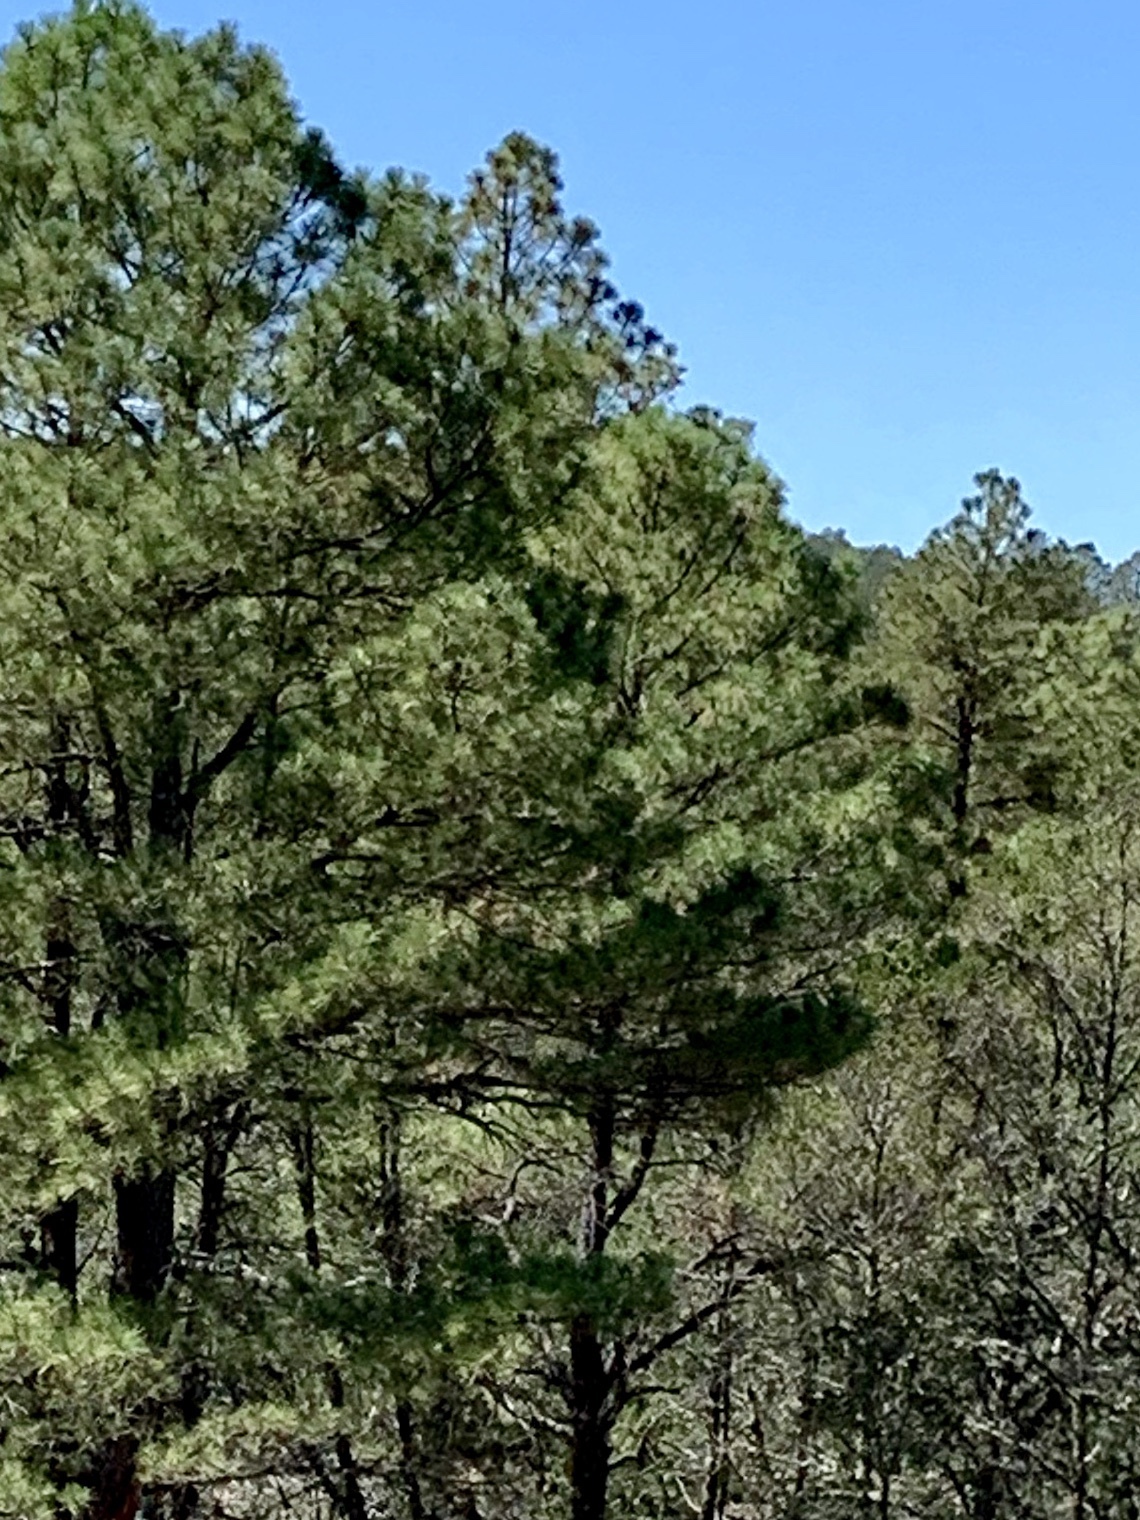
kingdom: Plantae
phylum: Tracheophyta
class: Pinopsida
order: Pinales
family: Pinaceae
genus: Pinus
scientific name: Pinus ponderosa
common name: Western yellow-pine
